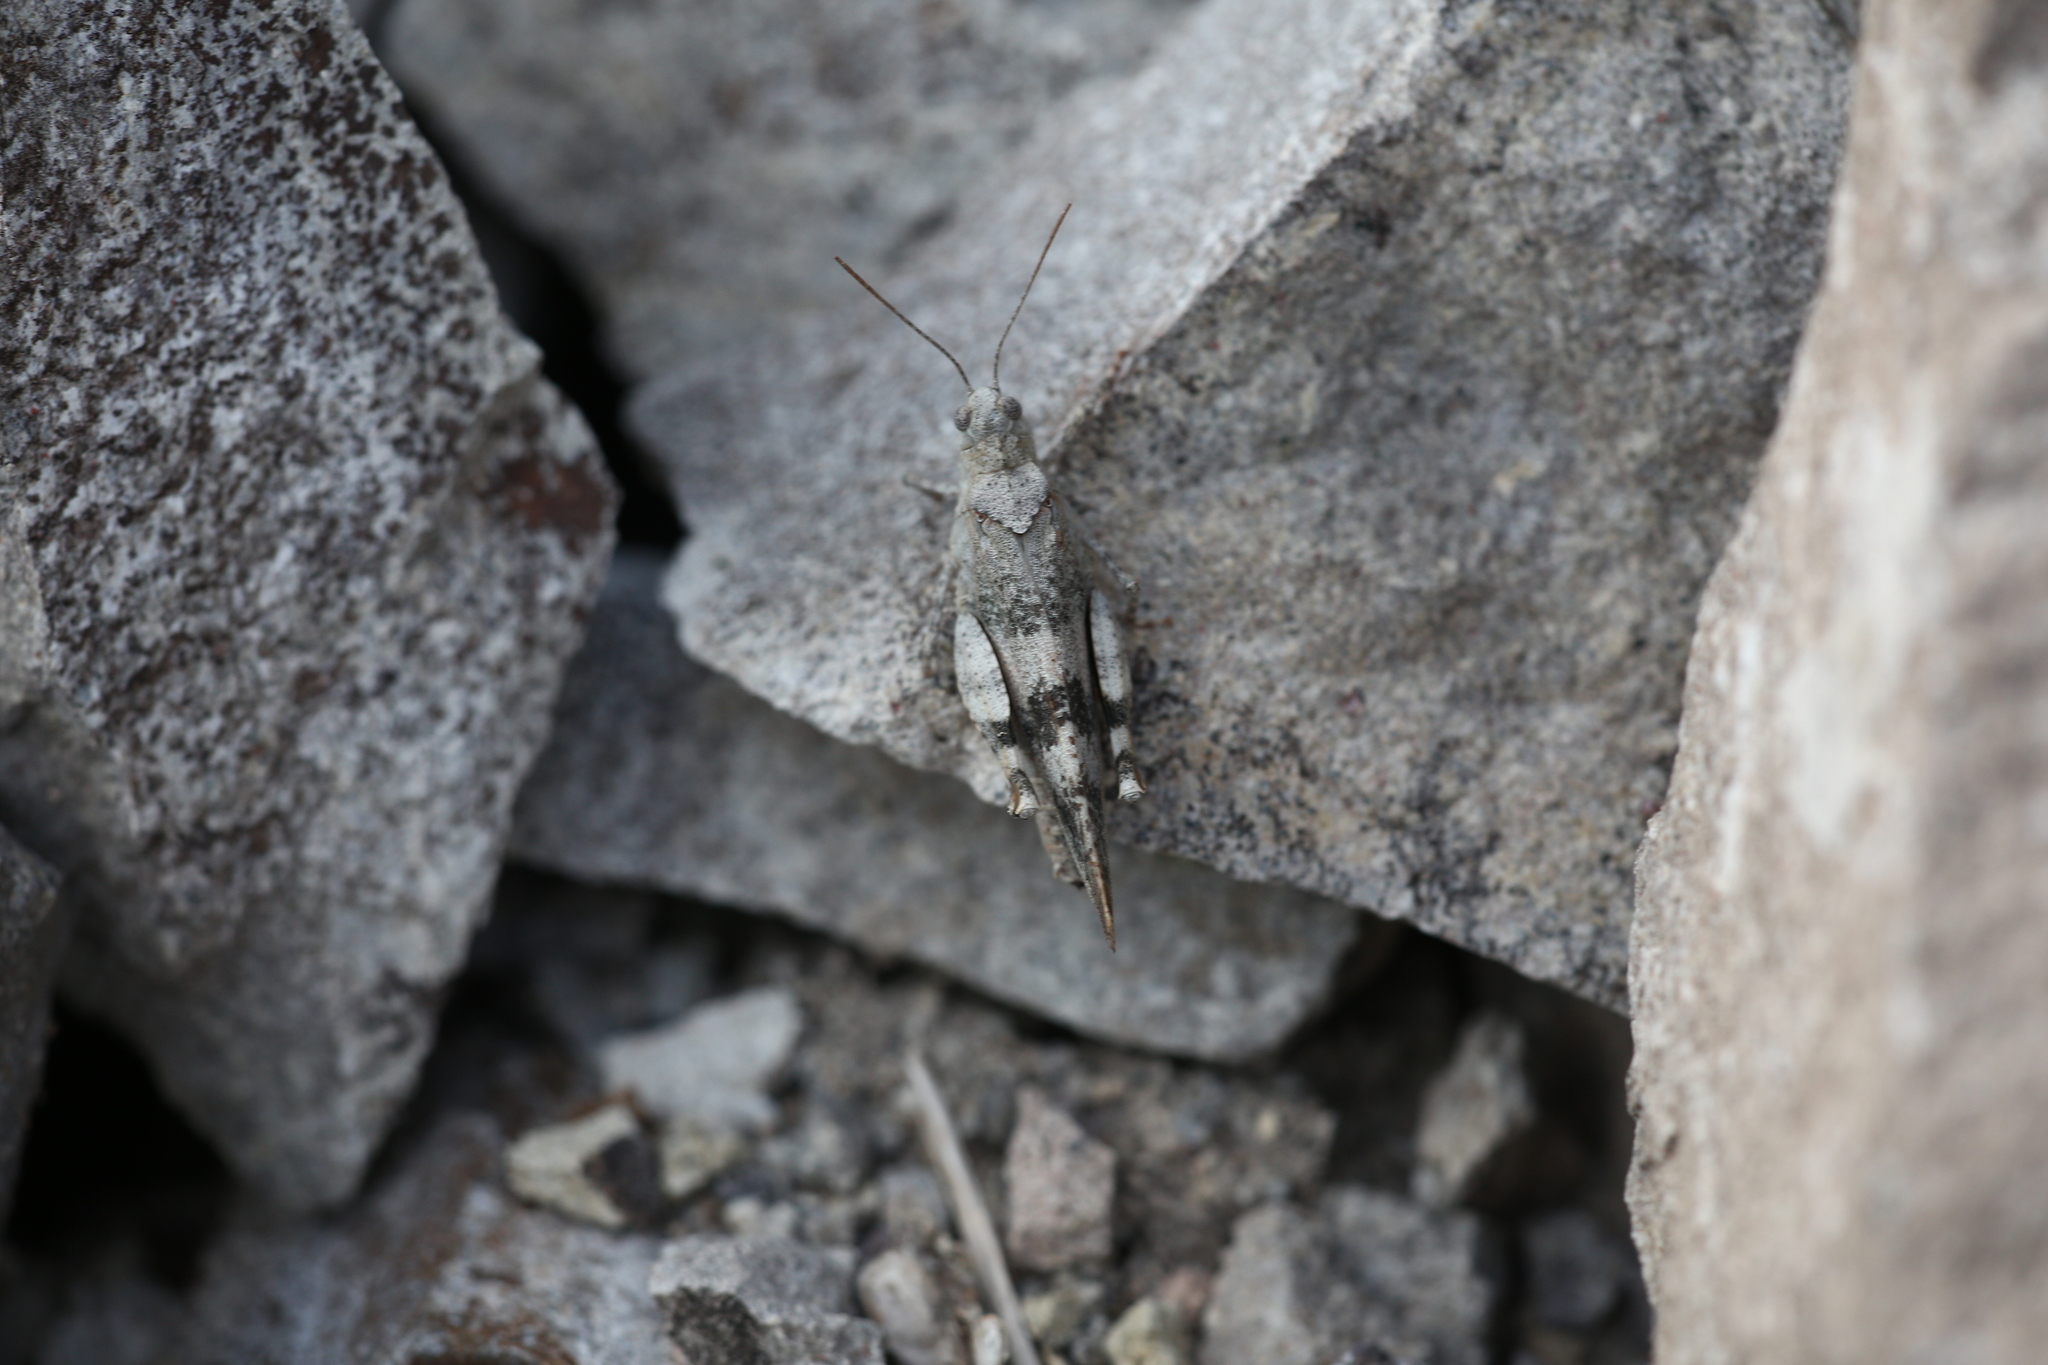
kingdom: Animalia
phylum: Arthropoda
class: Insecta
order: Orthoptera
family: Acrididae
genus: Oedipoda
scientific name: Oedipoda caerulescens
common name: Blue-winged grasshopper
